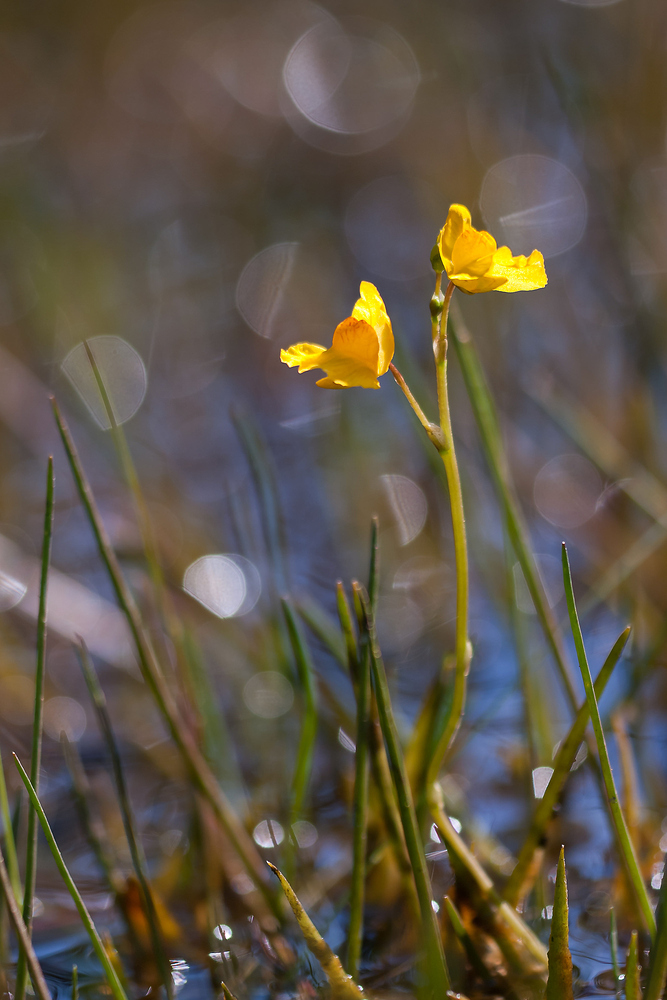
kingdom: Plantae
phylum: Tracheophyta
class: Magnoliopsida
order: Lamiales
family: Lentibulariaceae
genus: Utricularia
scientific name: Utricularia australis
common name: Bladderwort
